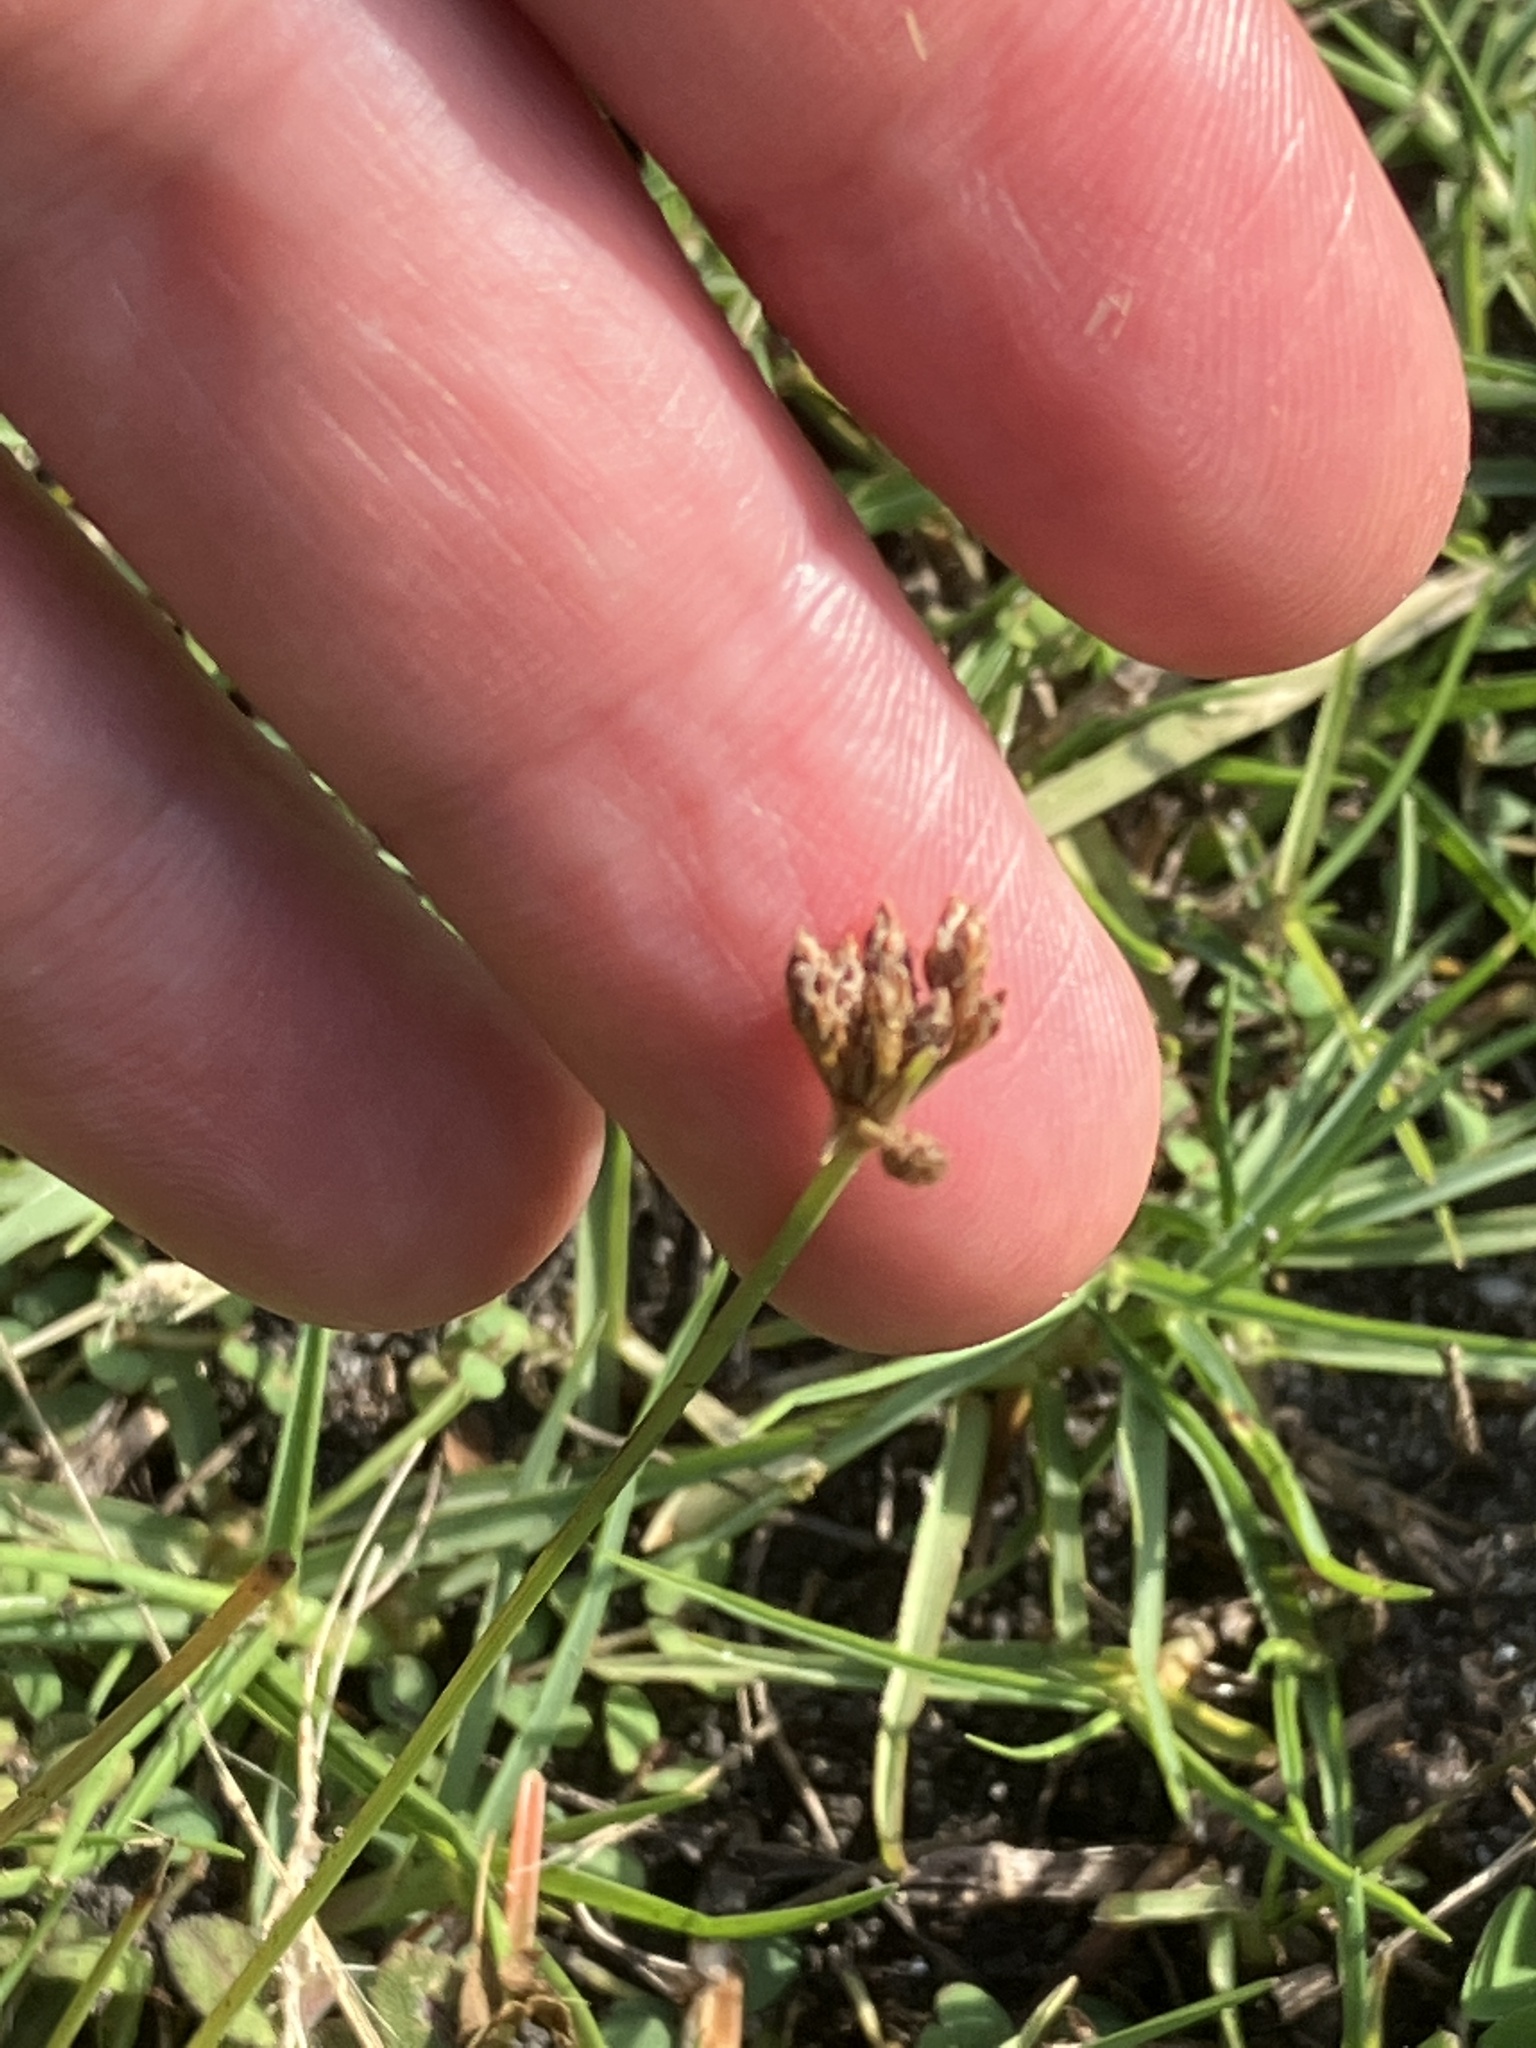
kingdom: Plantae
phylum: Tracheophyta
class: Liliopsida
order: Poales
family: Cyperaceae
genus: Fimbristylis
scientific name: Fimbristylis cymosa
